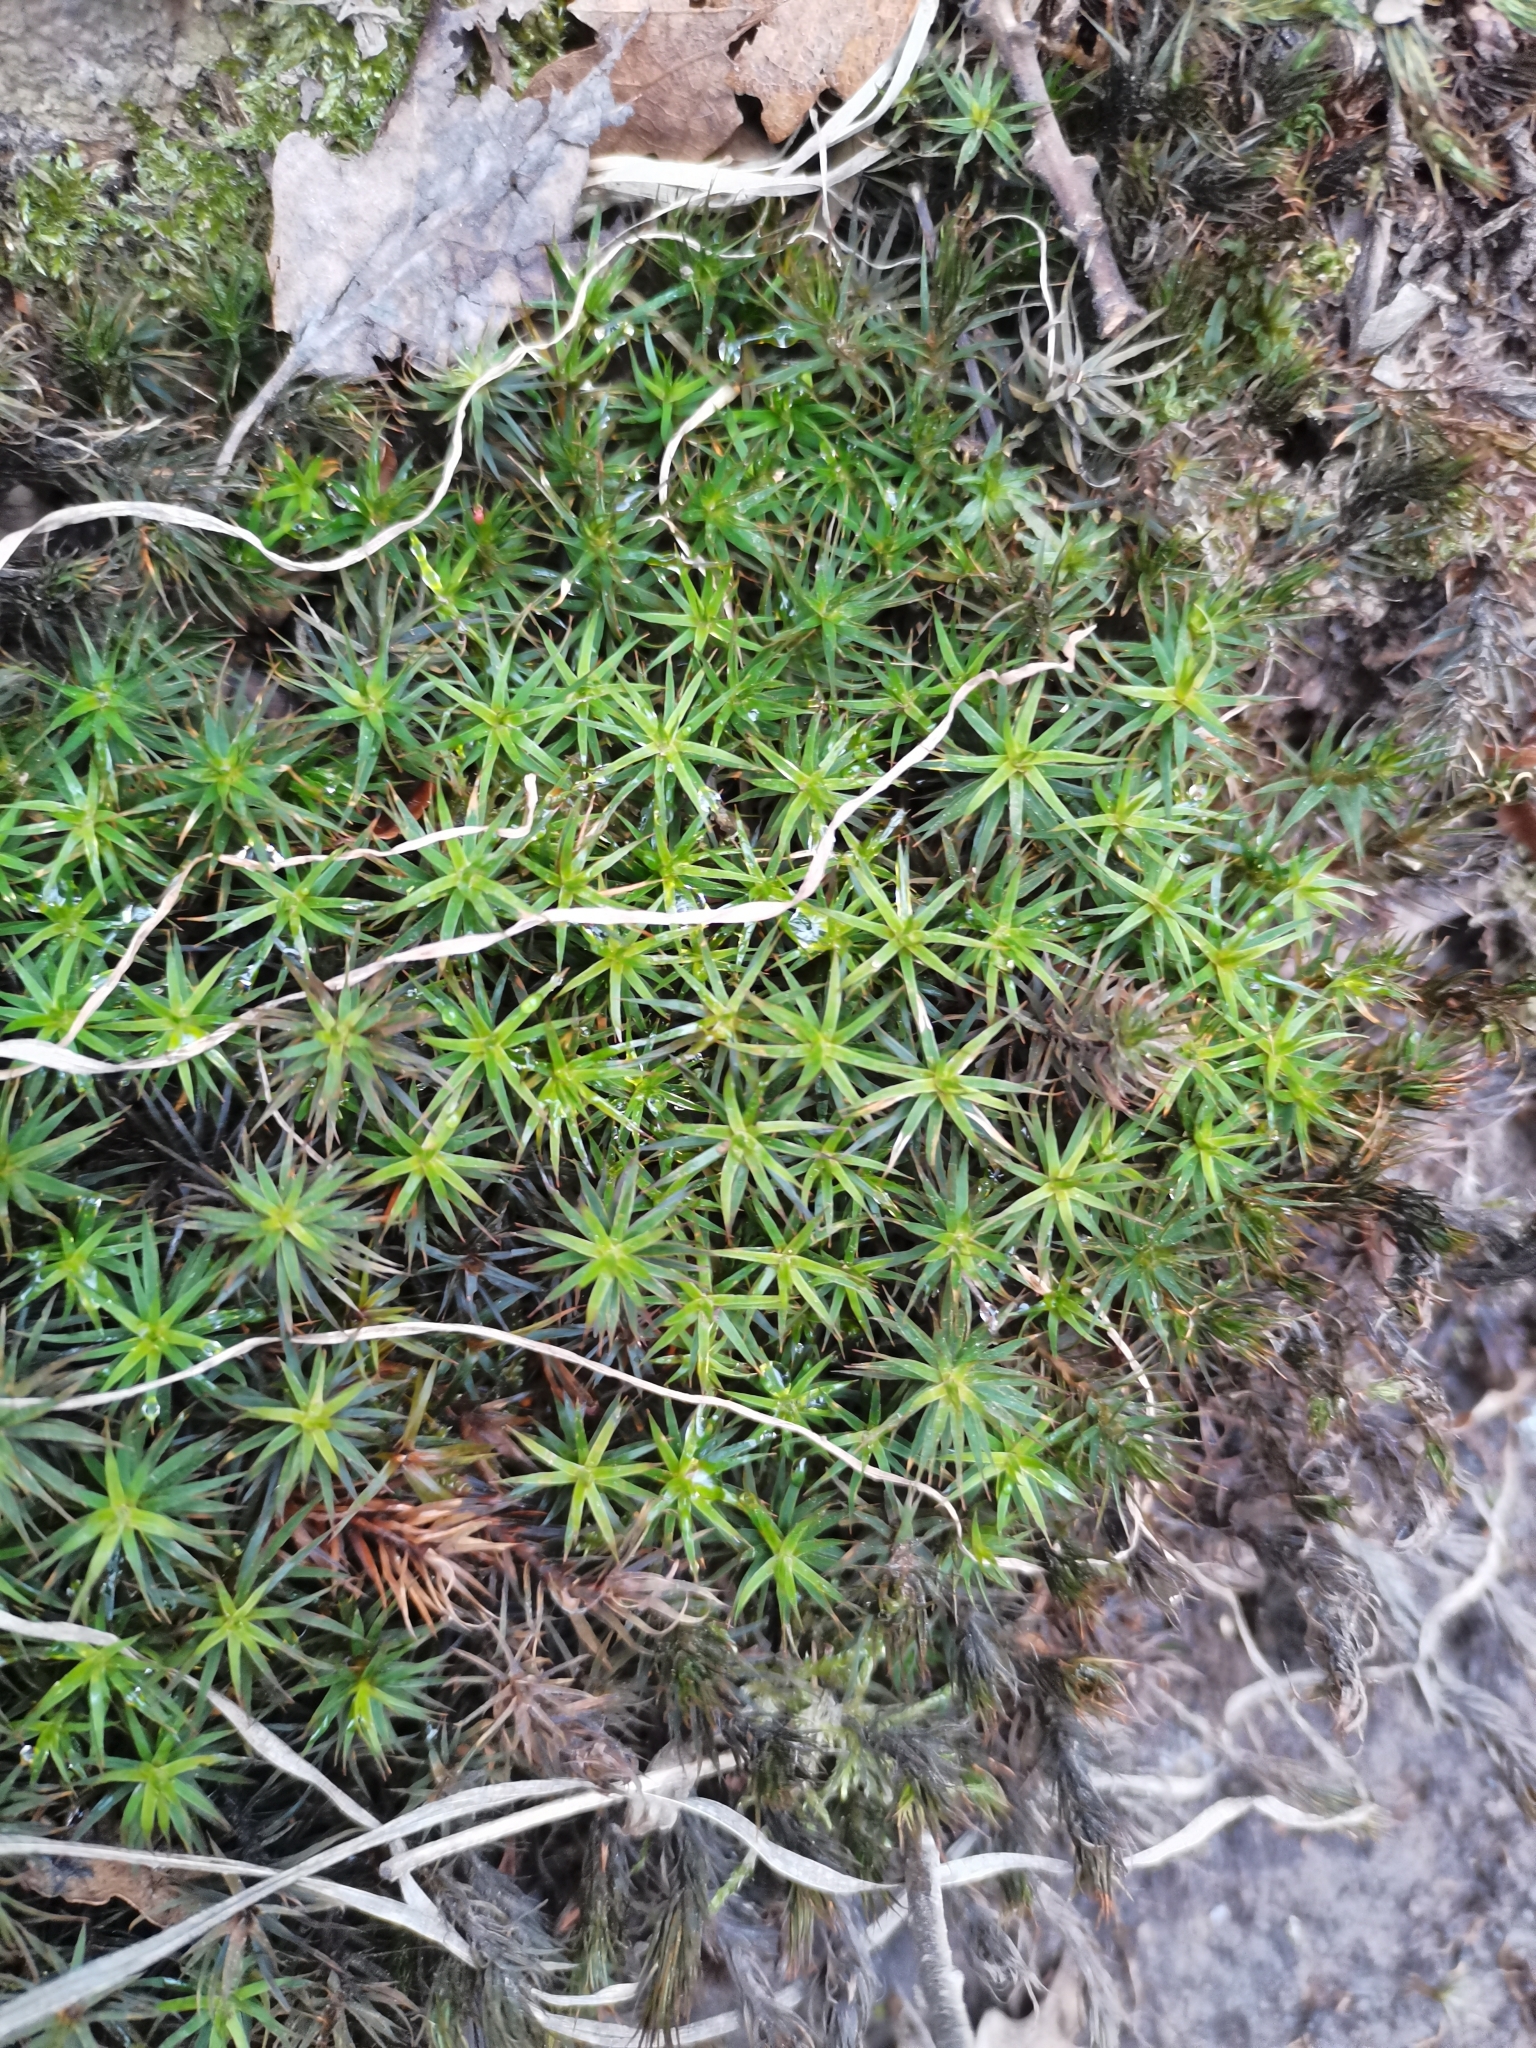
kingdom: Plantae
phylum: Bryophyta
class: Polytrichopsida
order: Polytrichales
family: Polytrichaceae
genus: Polytrichum
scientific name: Polytrichum formosum
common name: Bank haircap moss
